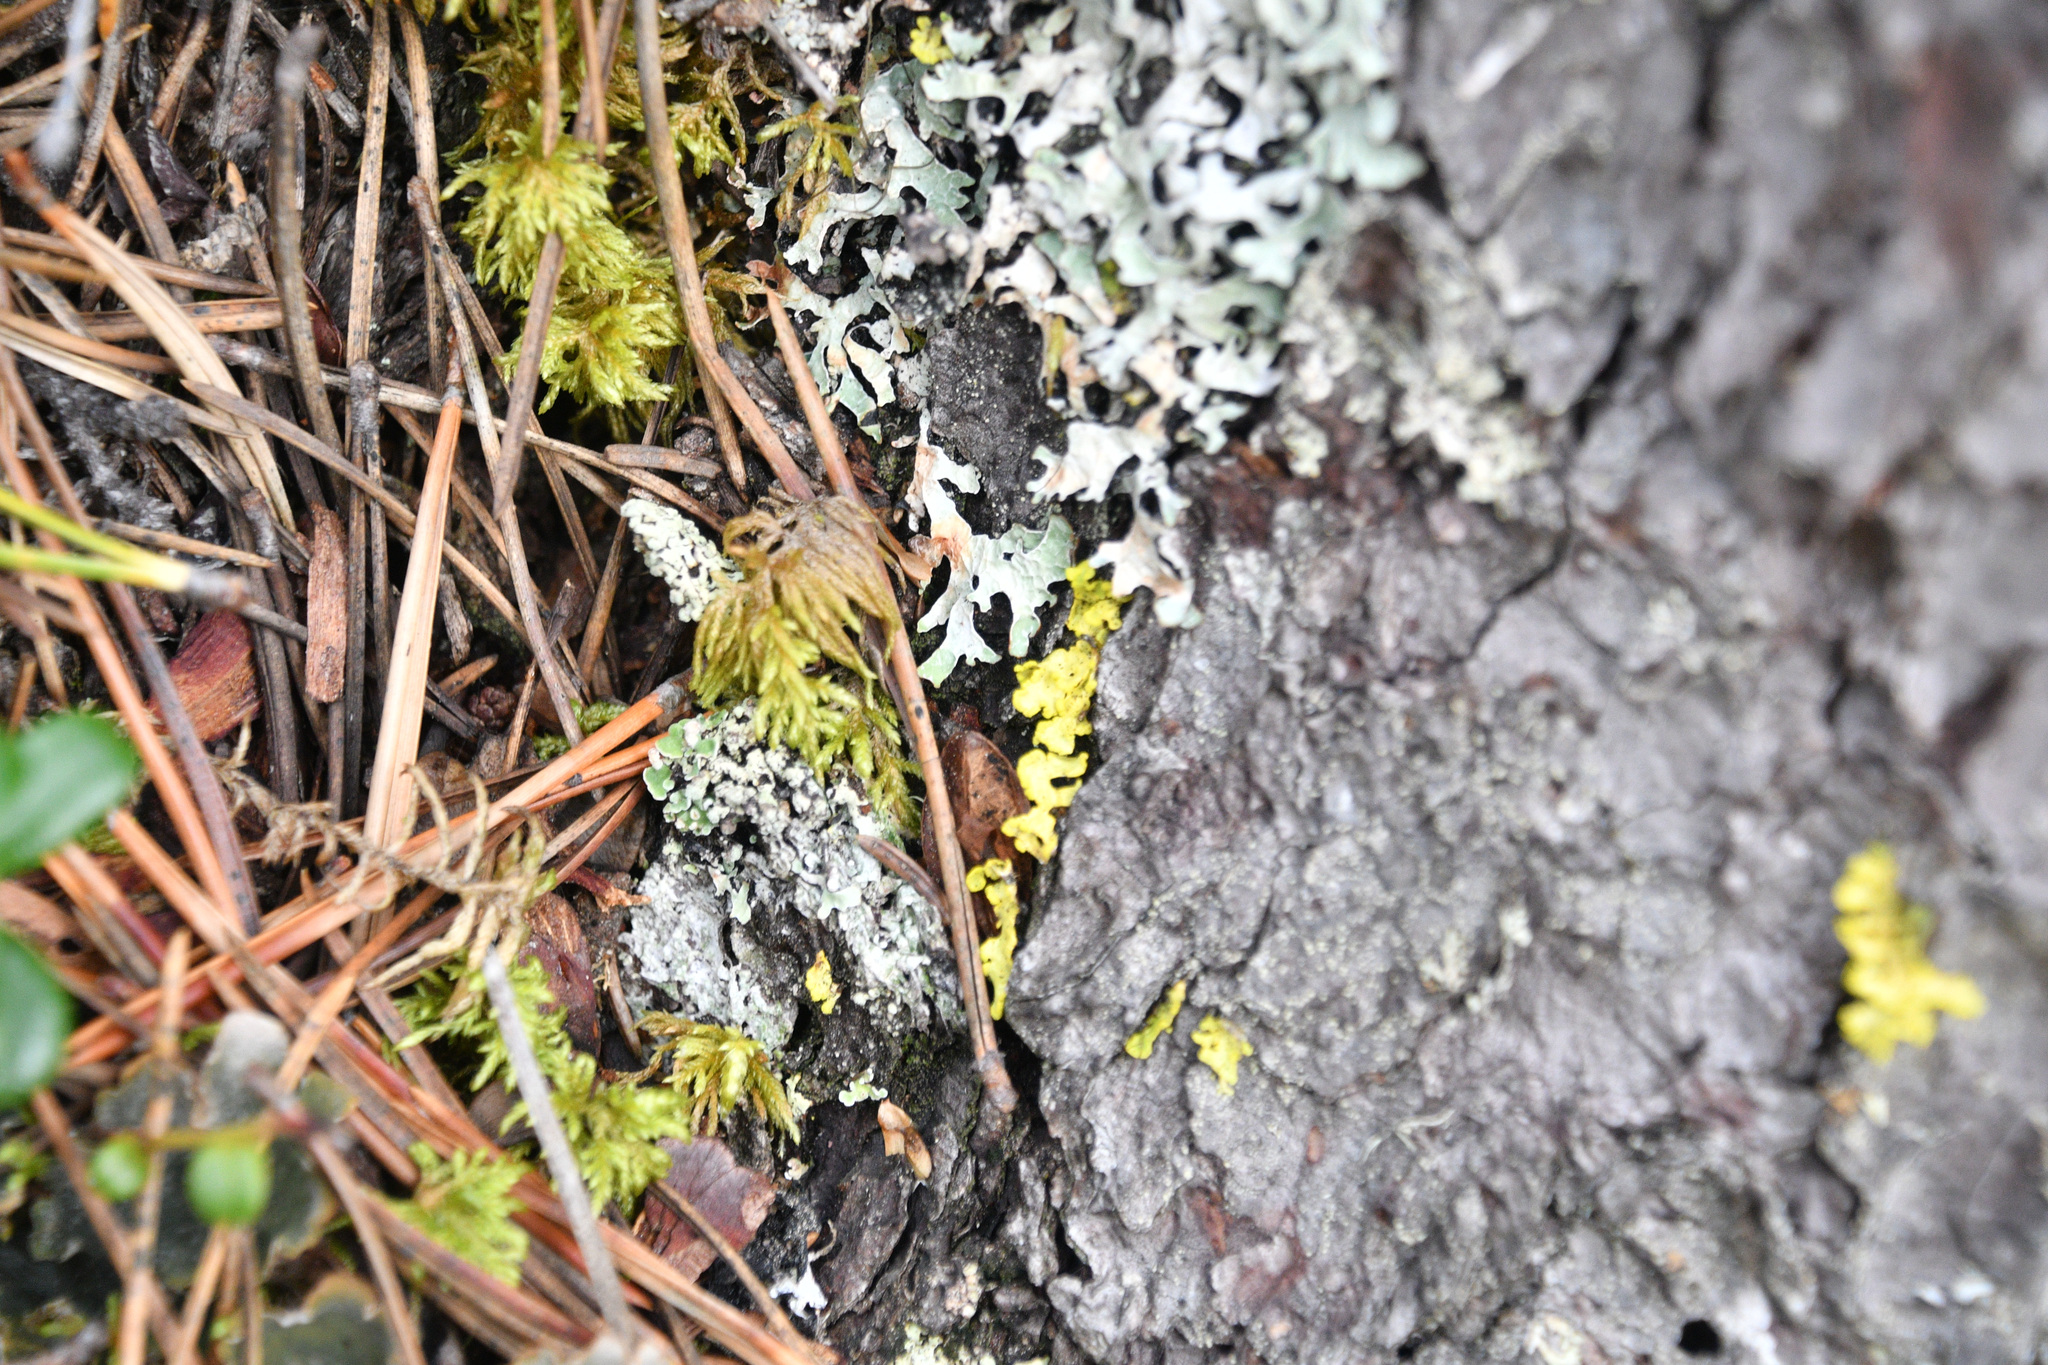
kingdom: Fungi
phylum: Ascomycota
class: Lecanoromycetes
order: Lecanorales
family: Parmeliaceae
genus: Vulpicida
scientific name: Vulpicida pinastri
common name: Powdered sunshine lichen
